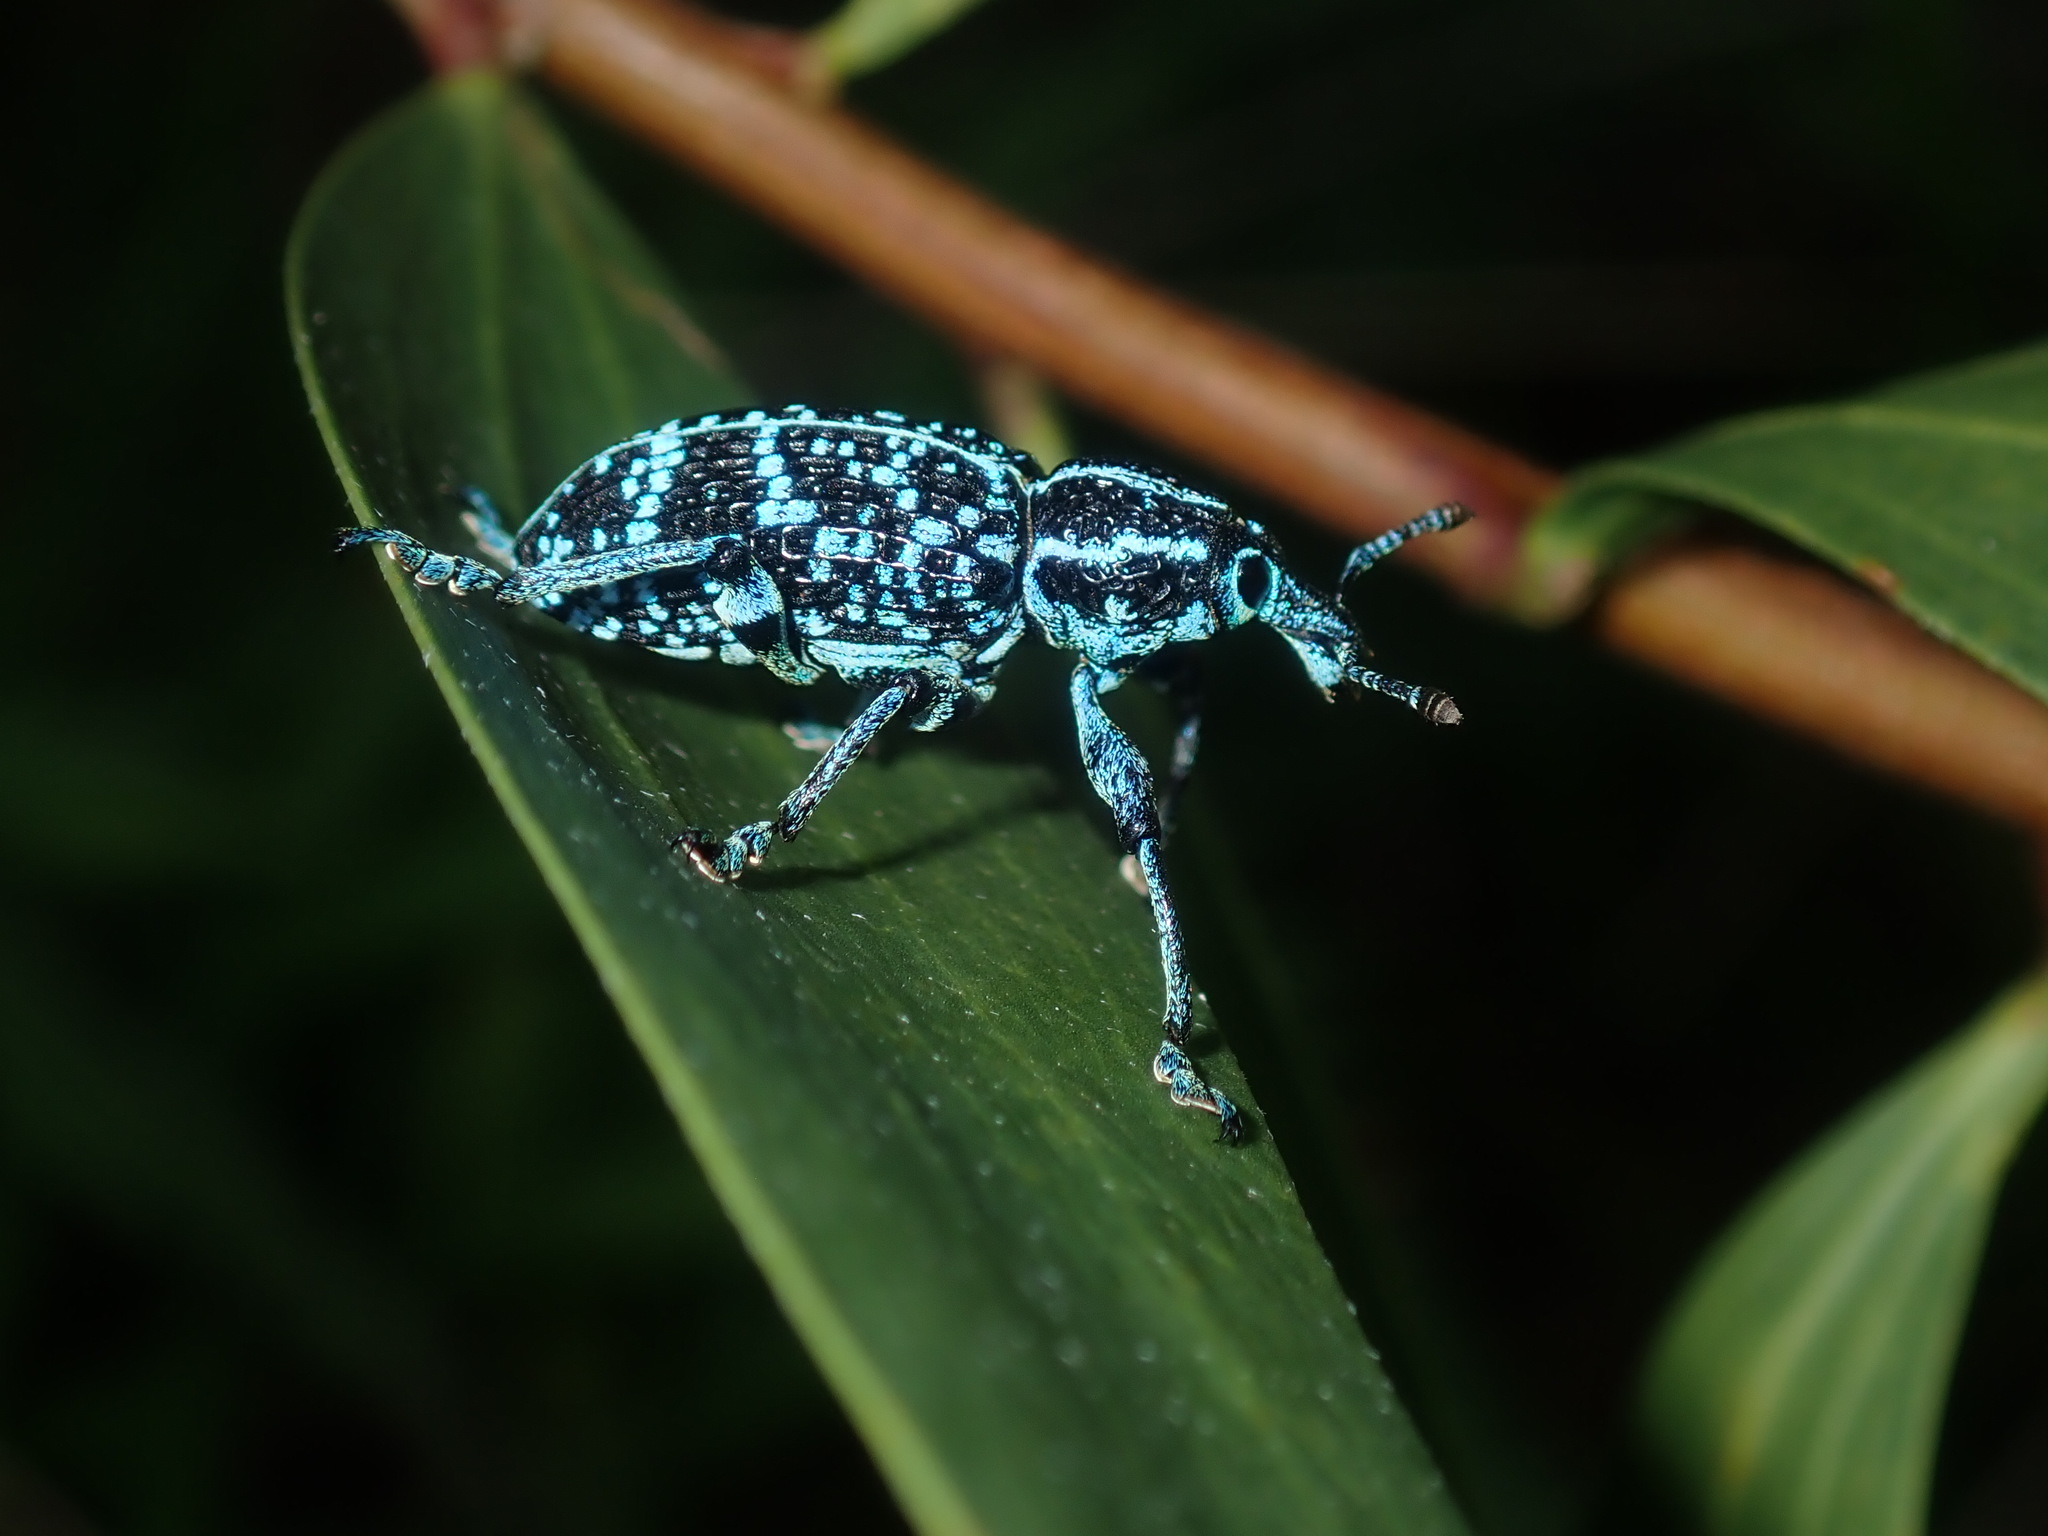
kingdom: Animalia
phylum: Arthropoda
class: Insecta
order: Coleoptera
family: Curculionidae
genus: Chrysolopus
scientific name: Chrysolopus spectabilis
